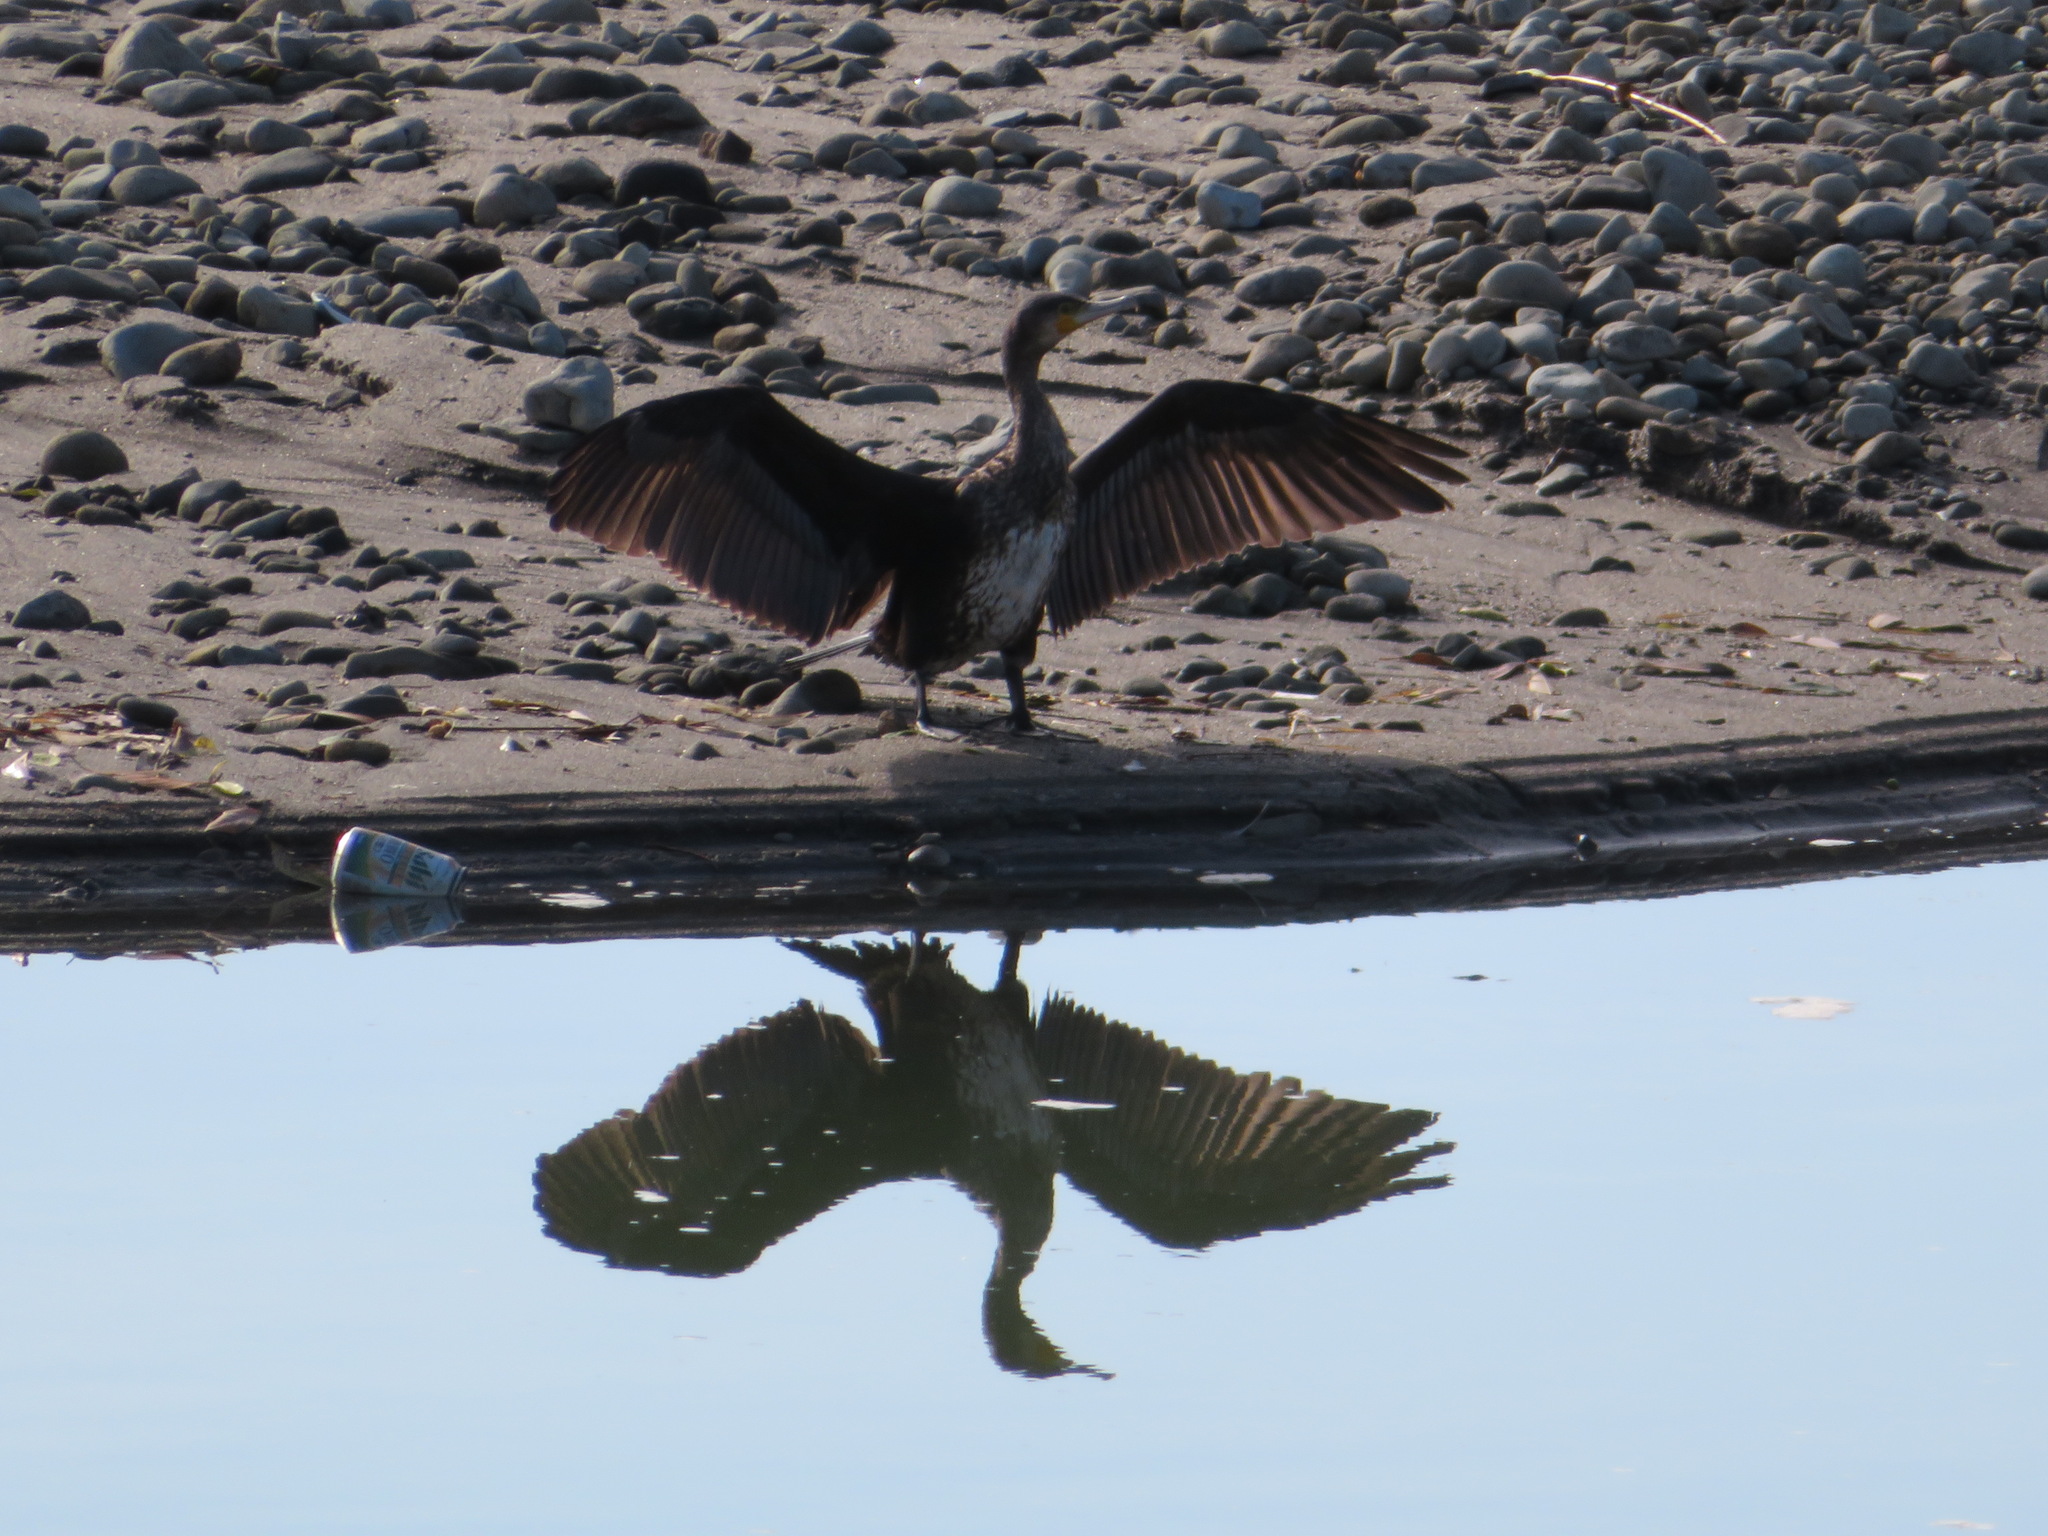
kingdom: Animalia
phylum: Chordata
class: Aves
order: Suliformes
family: Phalacrocoracidae
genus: Phalacrocorax
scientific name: Phalacrocorax carbo
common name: Great cormorant
